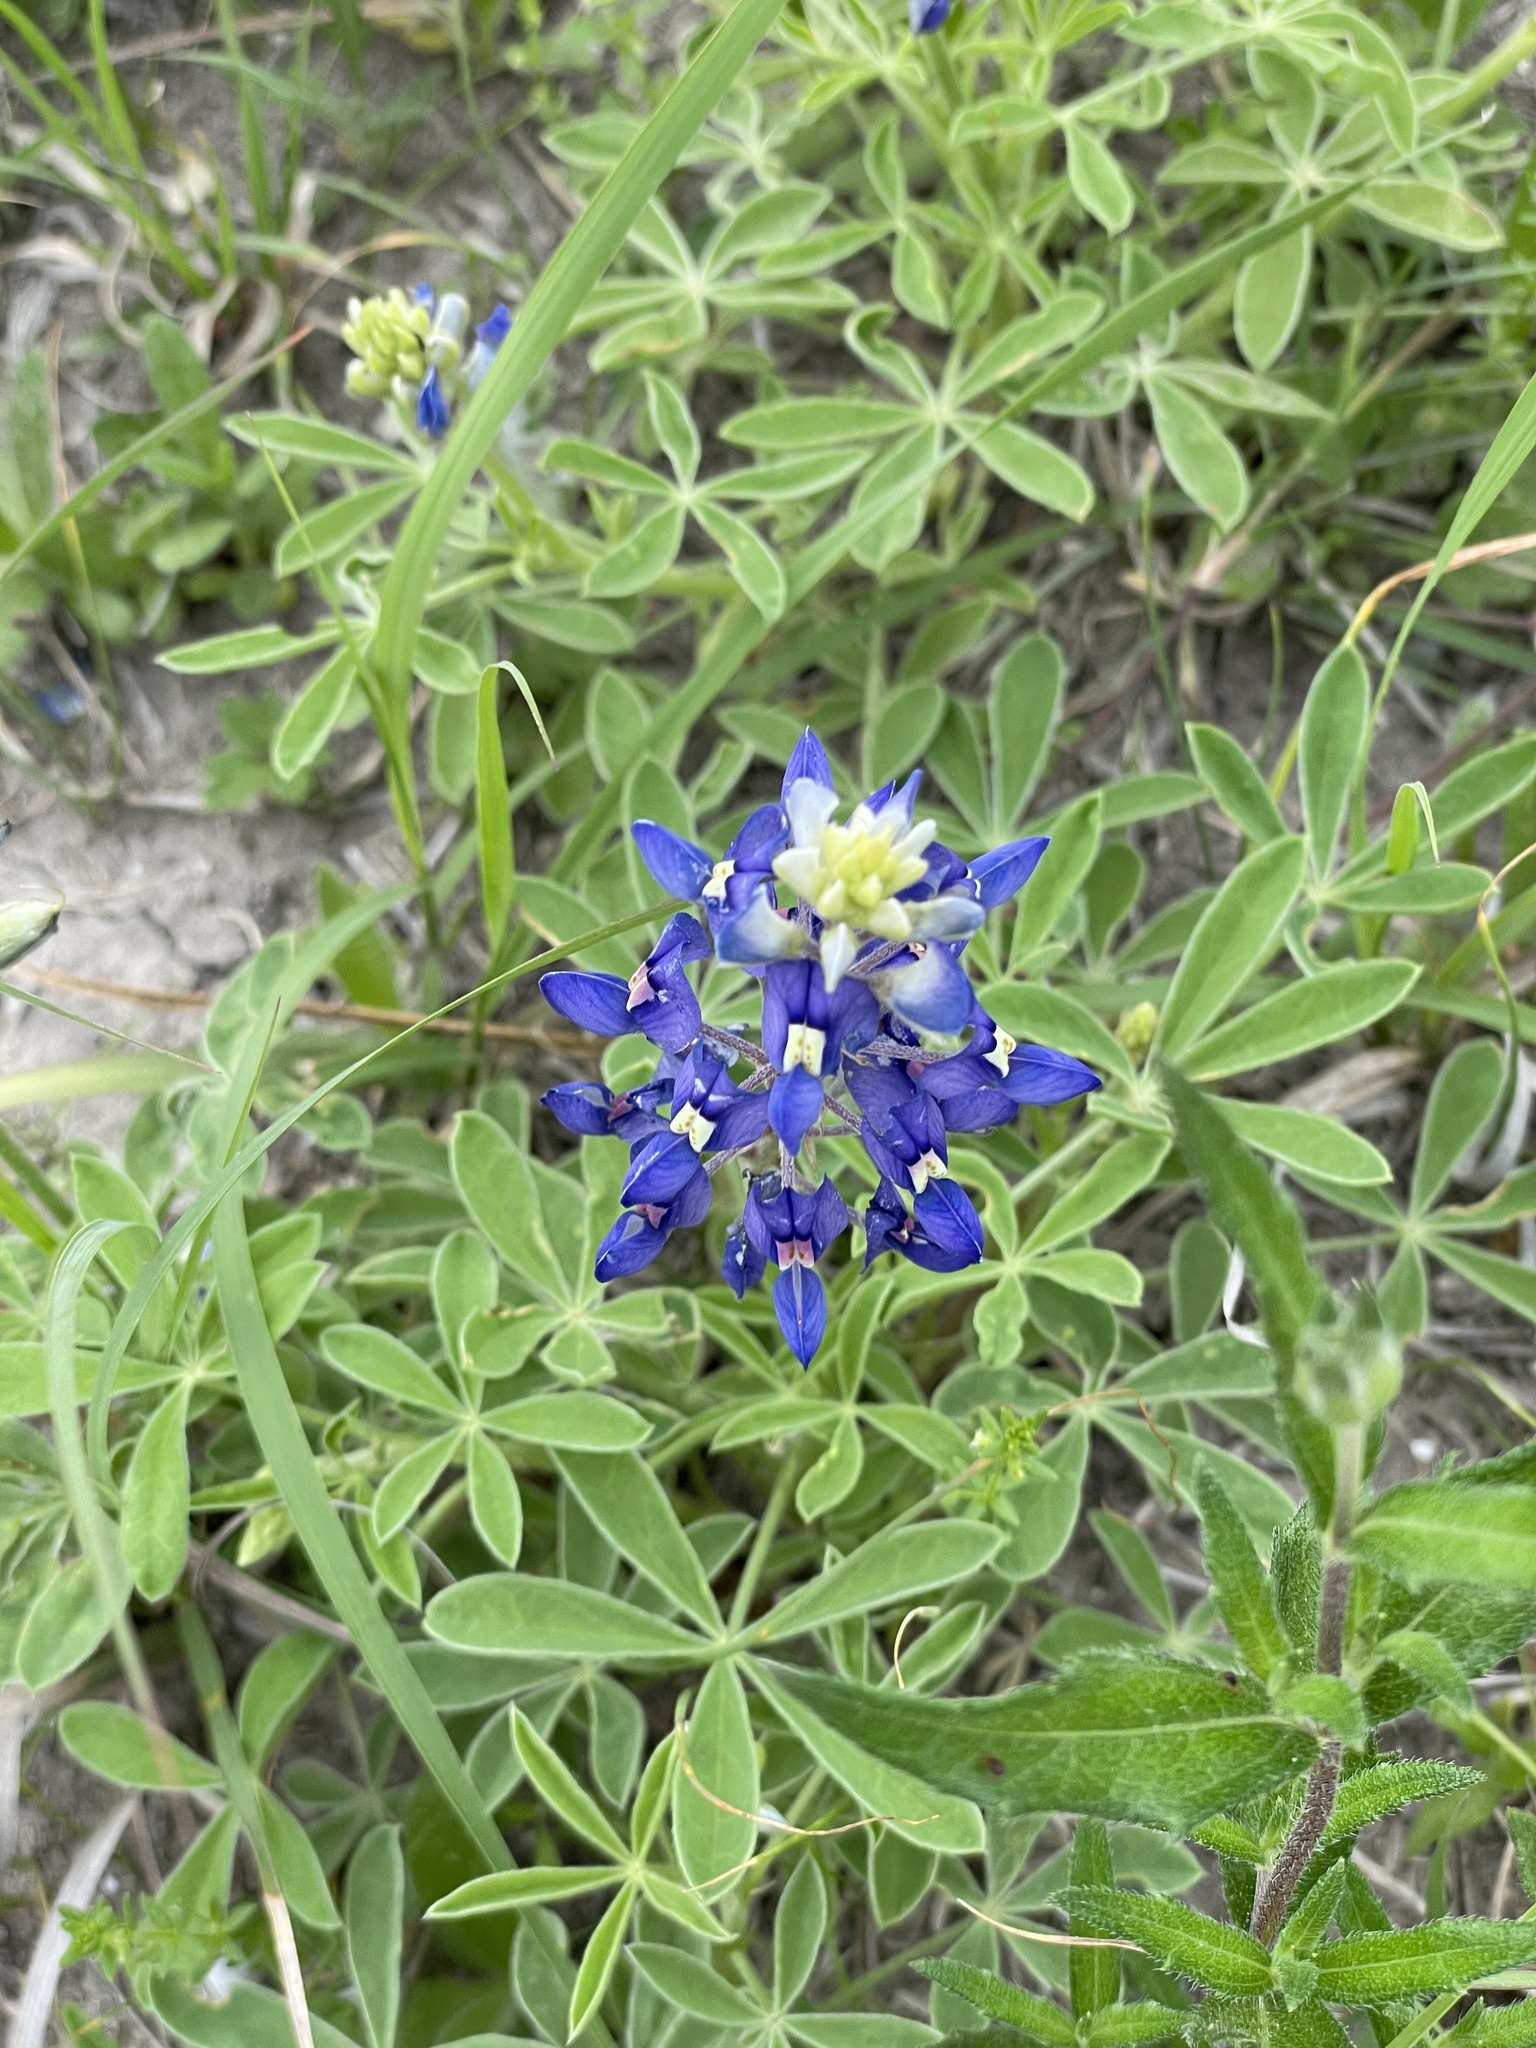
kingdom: Plantae
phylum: Tracheophyta
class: Magnoliopsida
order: Fabales
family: Fabaceae
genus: Lupinus
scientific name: Lupinus texensis
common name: Texas bluebonnet
